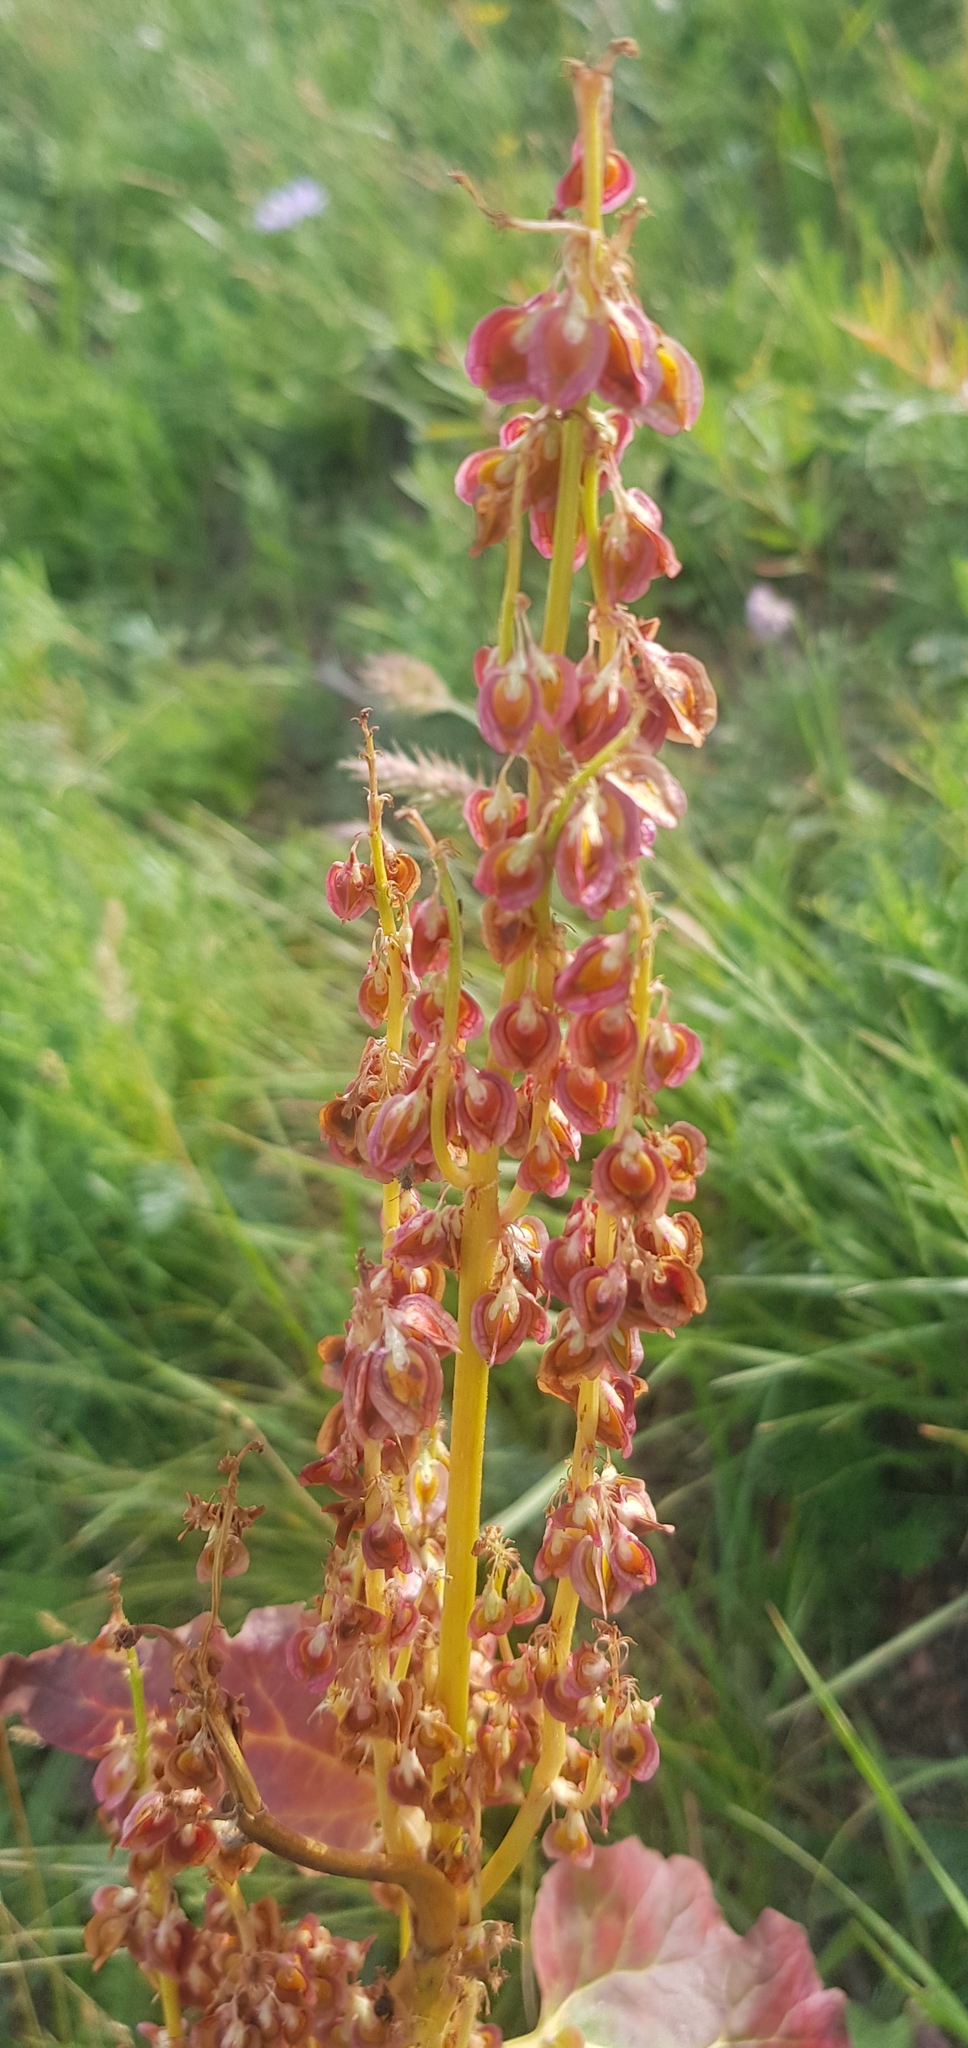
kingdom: Plantae
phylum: Tracheophyta
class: Magnoliopsida
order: Caryophyllales
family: Polygonaceae
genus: Rheum
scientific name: Rheum rhabarbarum
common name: Garden rhubarb
